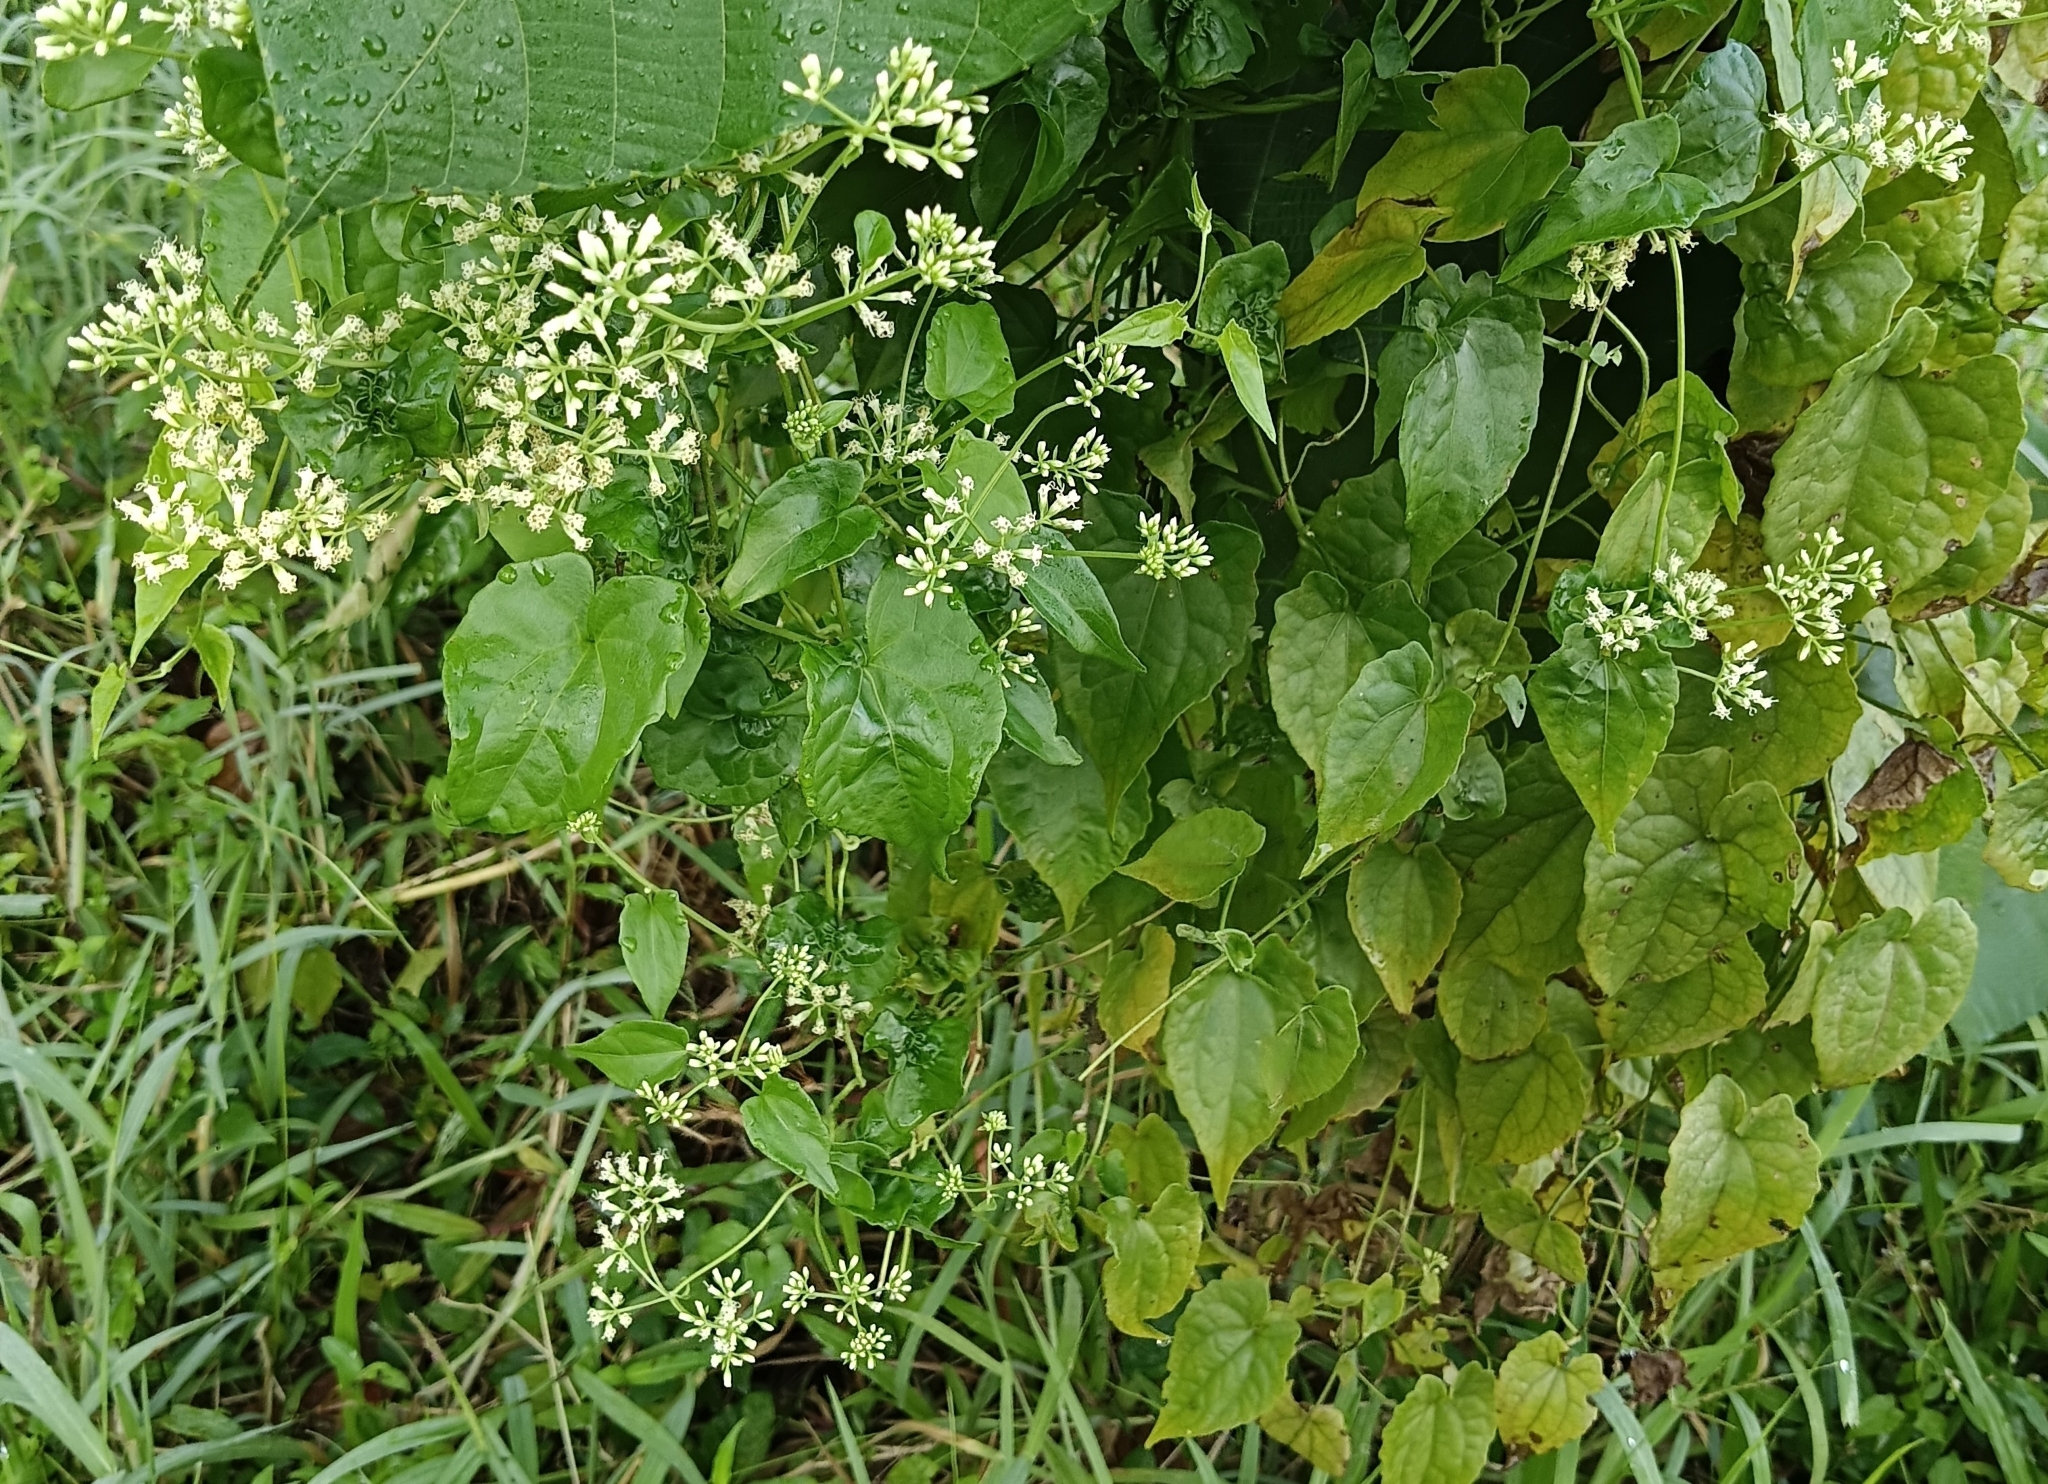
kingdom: Plantae
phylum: Tracheophyta
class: Magnoliopsida
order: Asterales
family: Asteraceae
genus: Mikania
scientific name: Mikania micrantha
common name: Mile-a-minute
